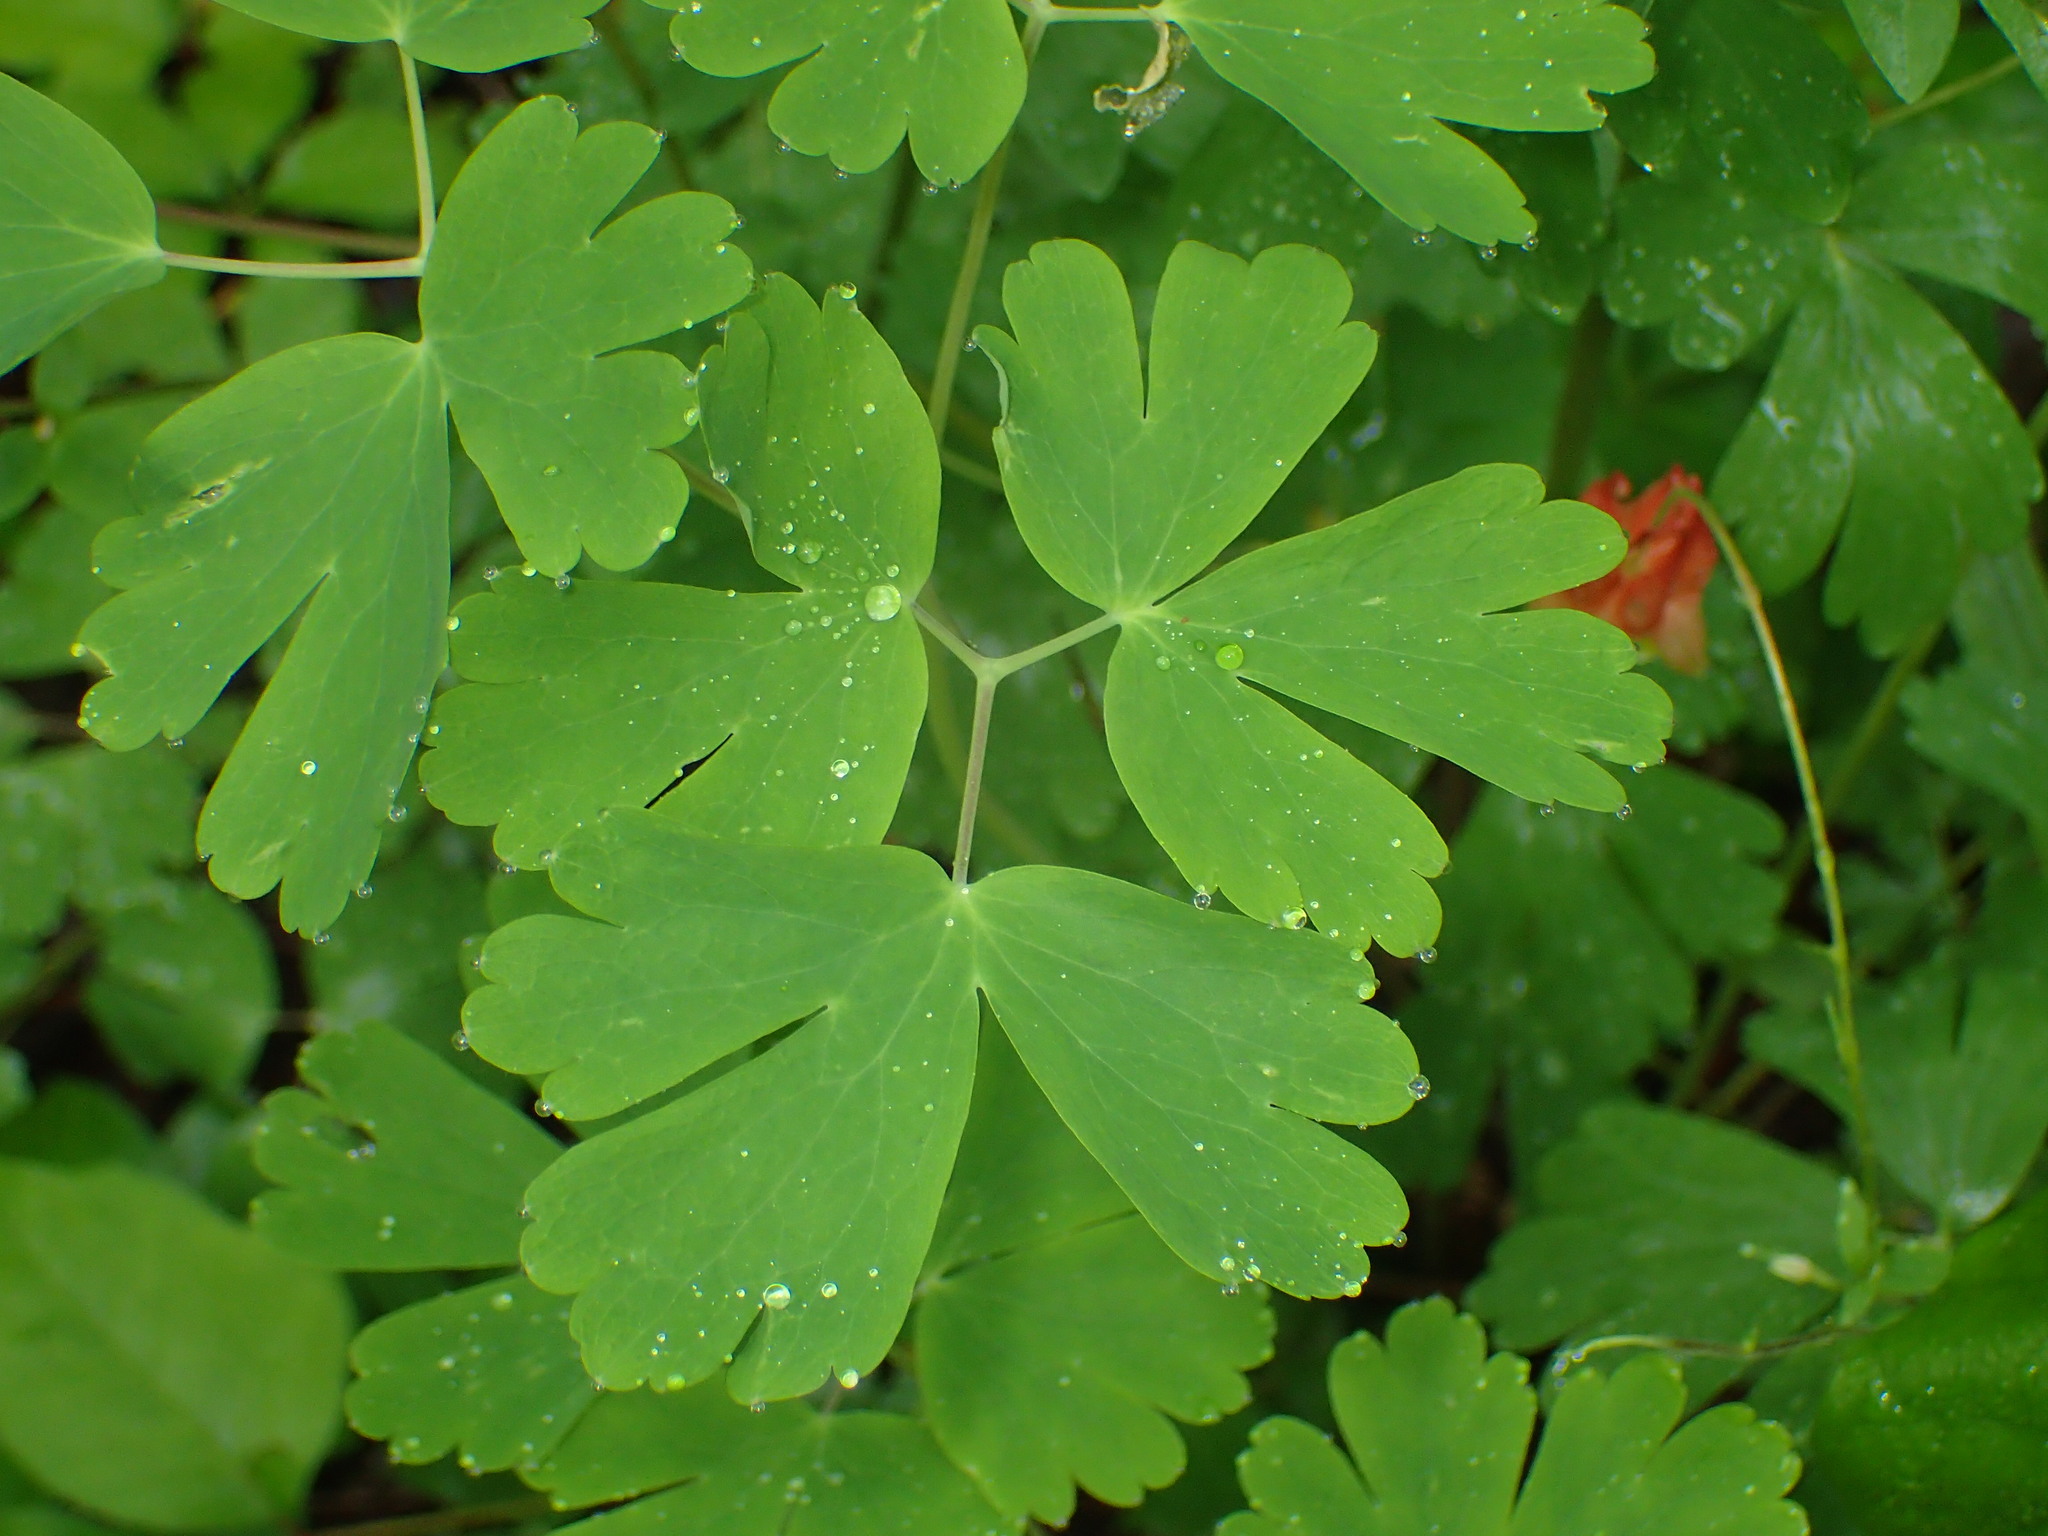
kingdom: Plantae
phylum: Tracheophyta
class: Magnoliopsida
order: Ranunculales
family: Ranunculaceae
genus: Aquilegia
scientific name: Aquilegia canadensis
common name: American columbine
